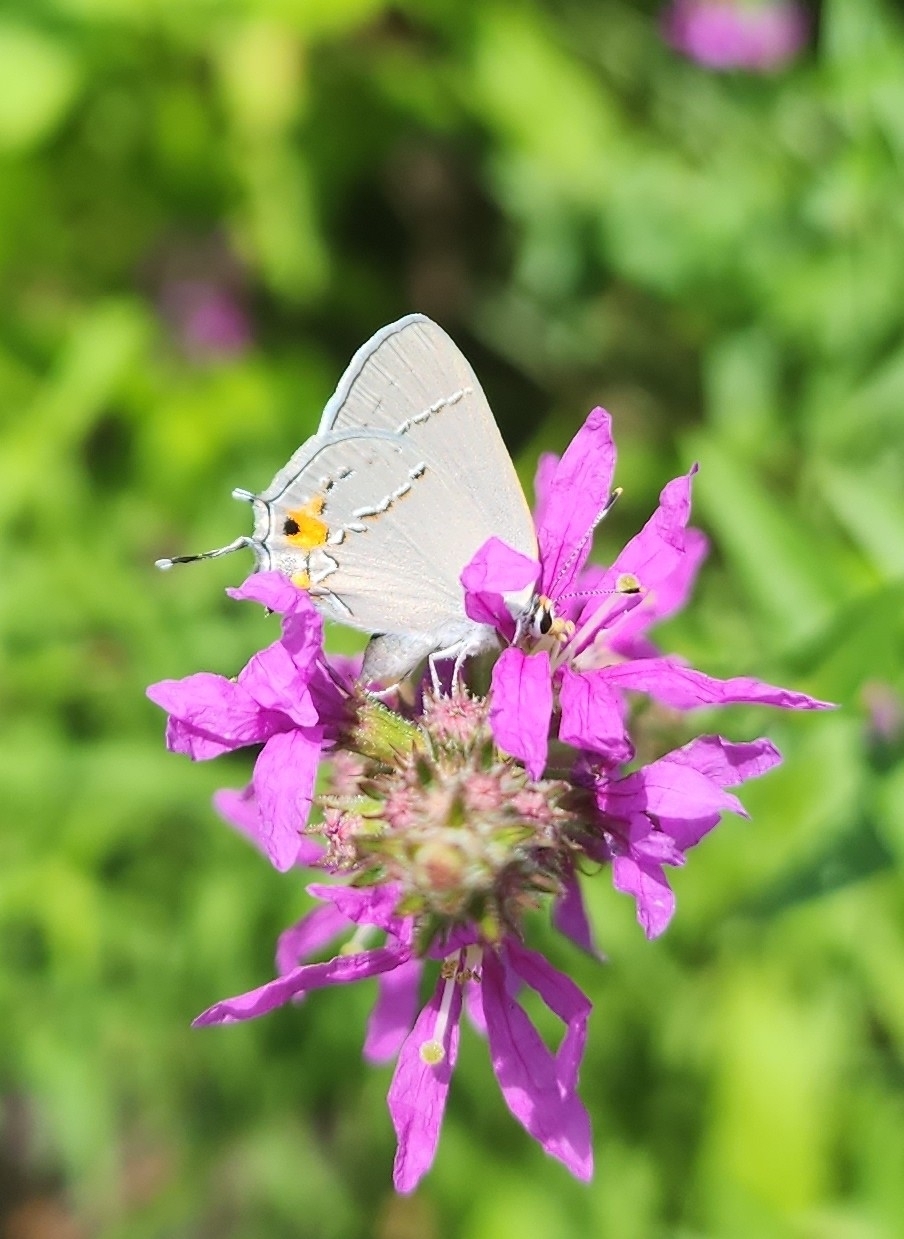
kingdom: Animalia
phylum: Arthropoda
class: Insecta
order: Lepidoptera
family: Lycaenidae
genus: Strymon
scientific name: Strymon melinus
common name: Gray hairstreak
